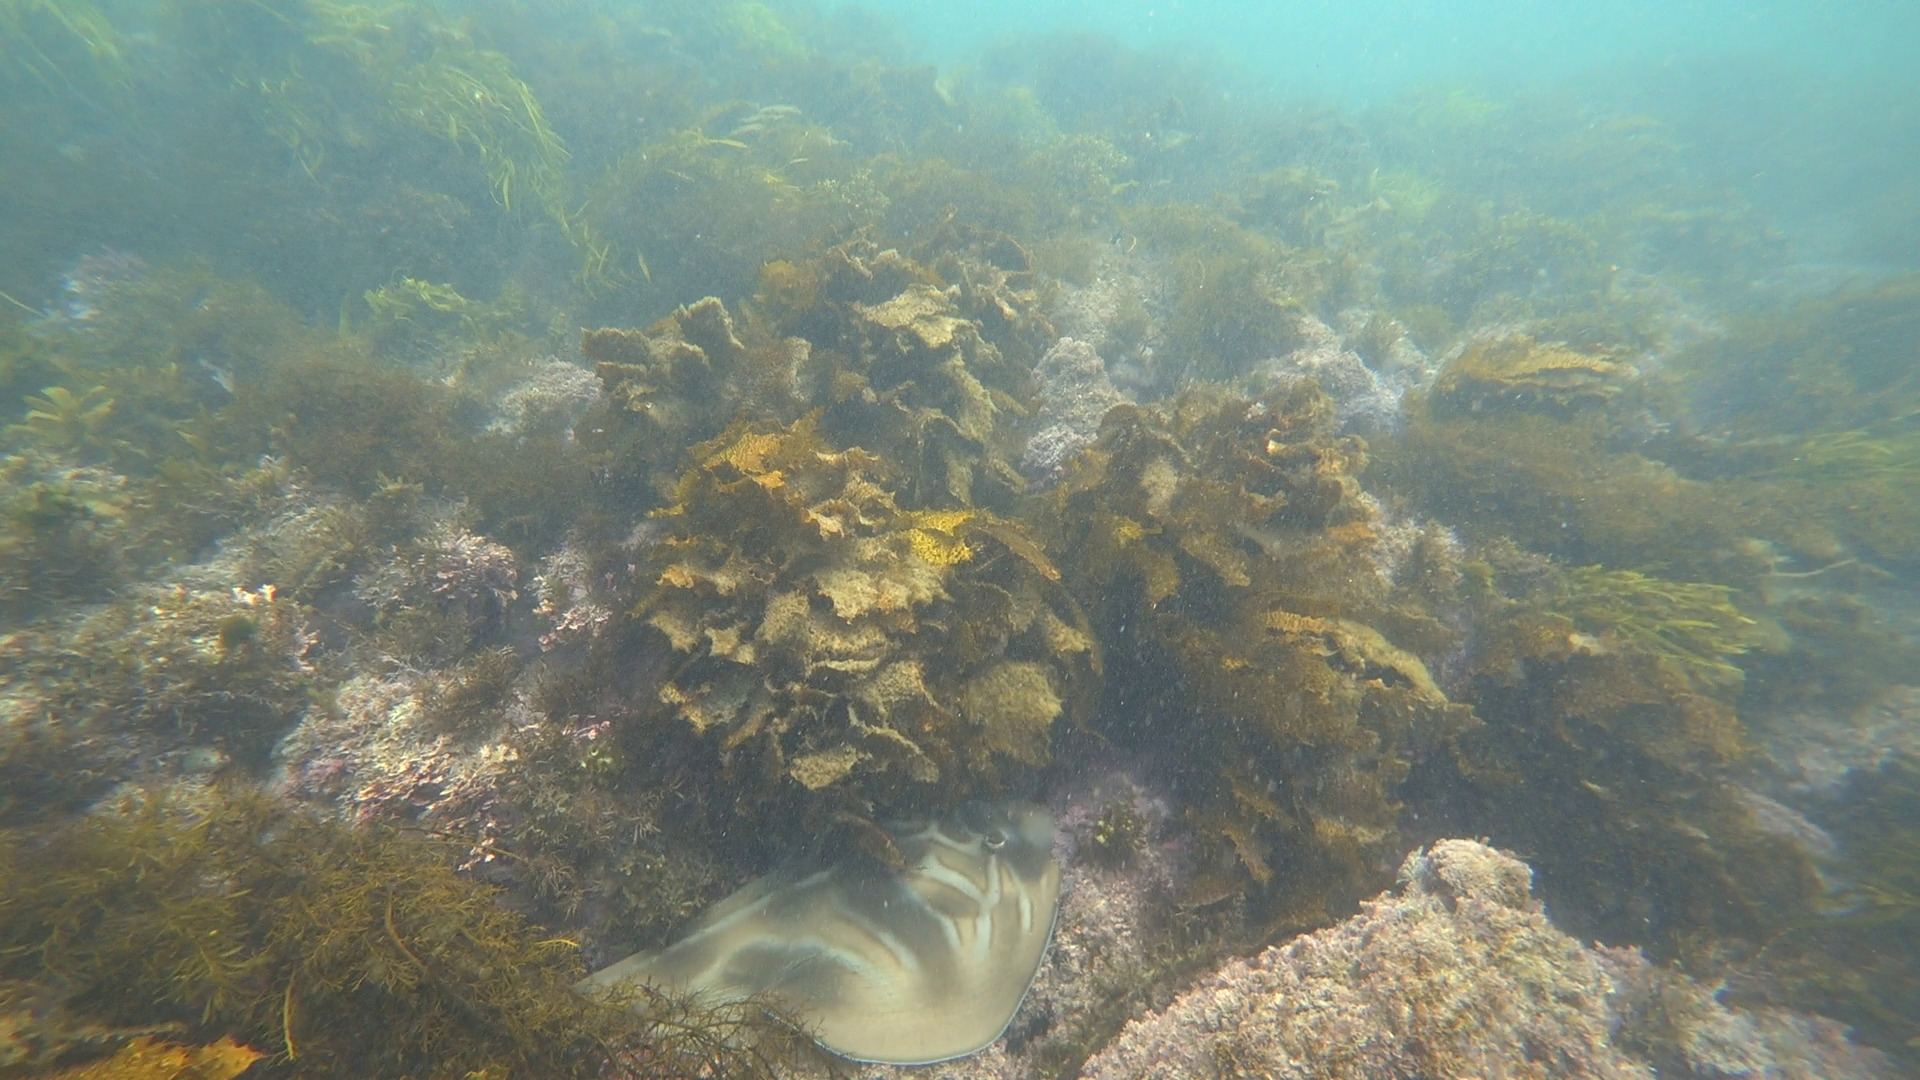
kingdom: Animalia
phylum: Chordata
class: Elasmobranchii
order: Rhinopristiformes
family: Rhinobatidae
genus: Trygonorrhina
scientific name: Trygonorrhina fasciata
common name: Southern fiddler
